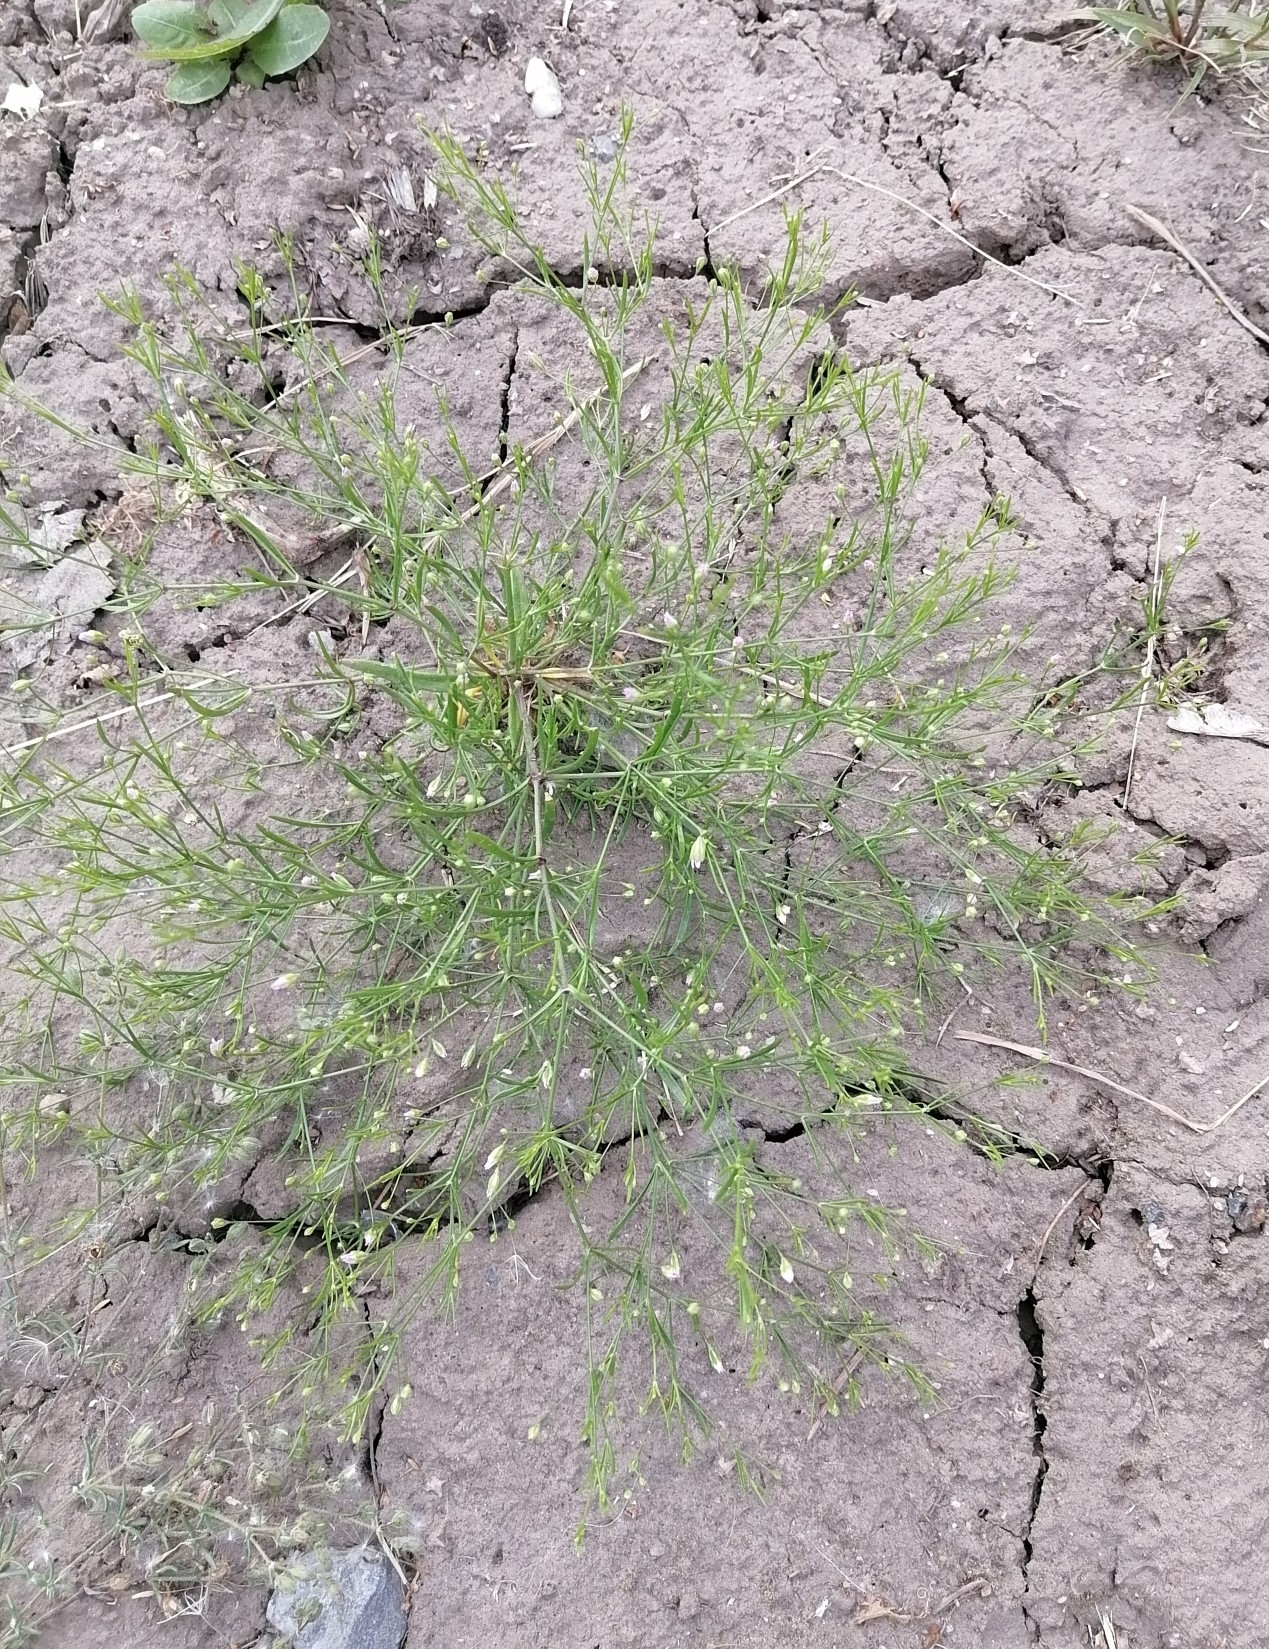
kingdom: Plantae
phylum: Tracheophyta
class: Magnoliopsida
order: Caryophyllales
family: Caryophyllaceae
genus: Psammophiliella
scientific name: Psammophiliella muralis
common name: Cushion baby's-breath
